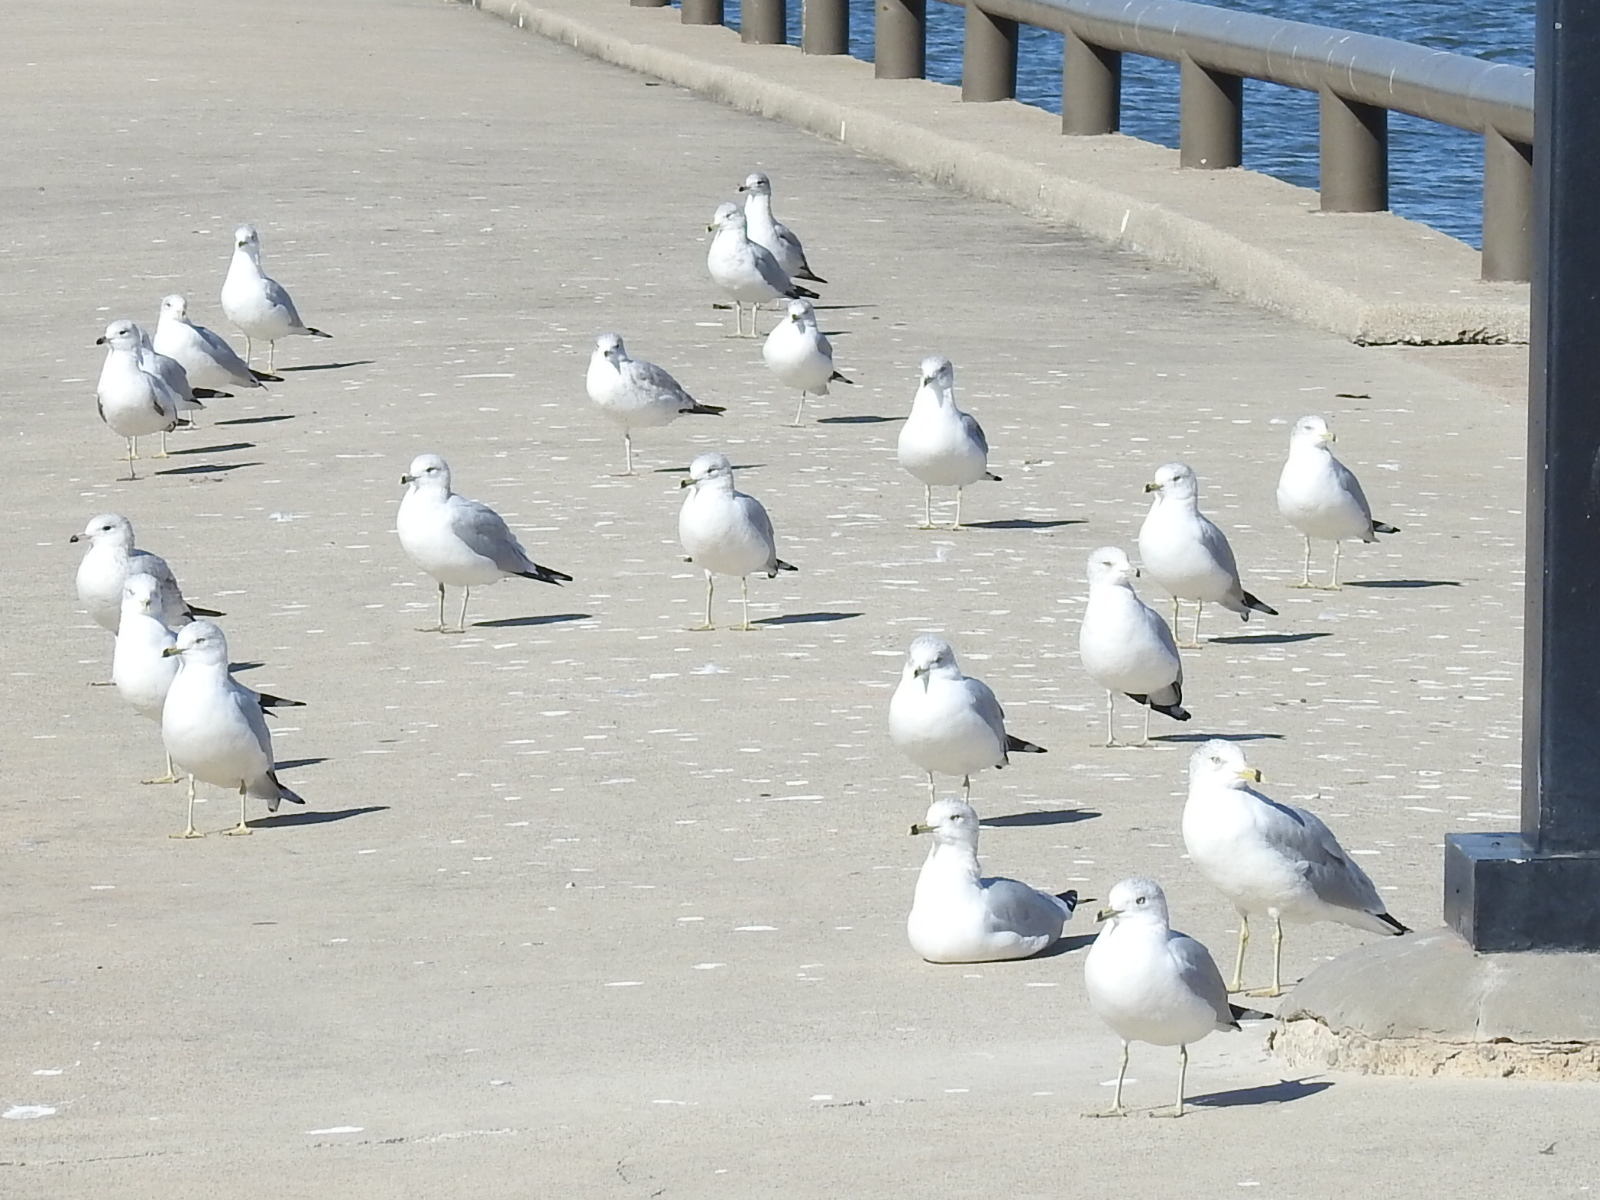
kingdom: Animalia
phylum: Chordata
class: Aves
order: Charadriiformes
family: Laridae
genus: Larus
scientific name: Larus delawarensis
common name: Ring-billed gull
